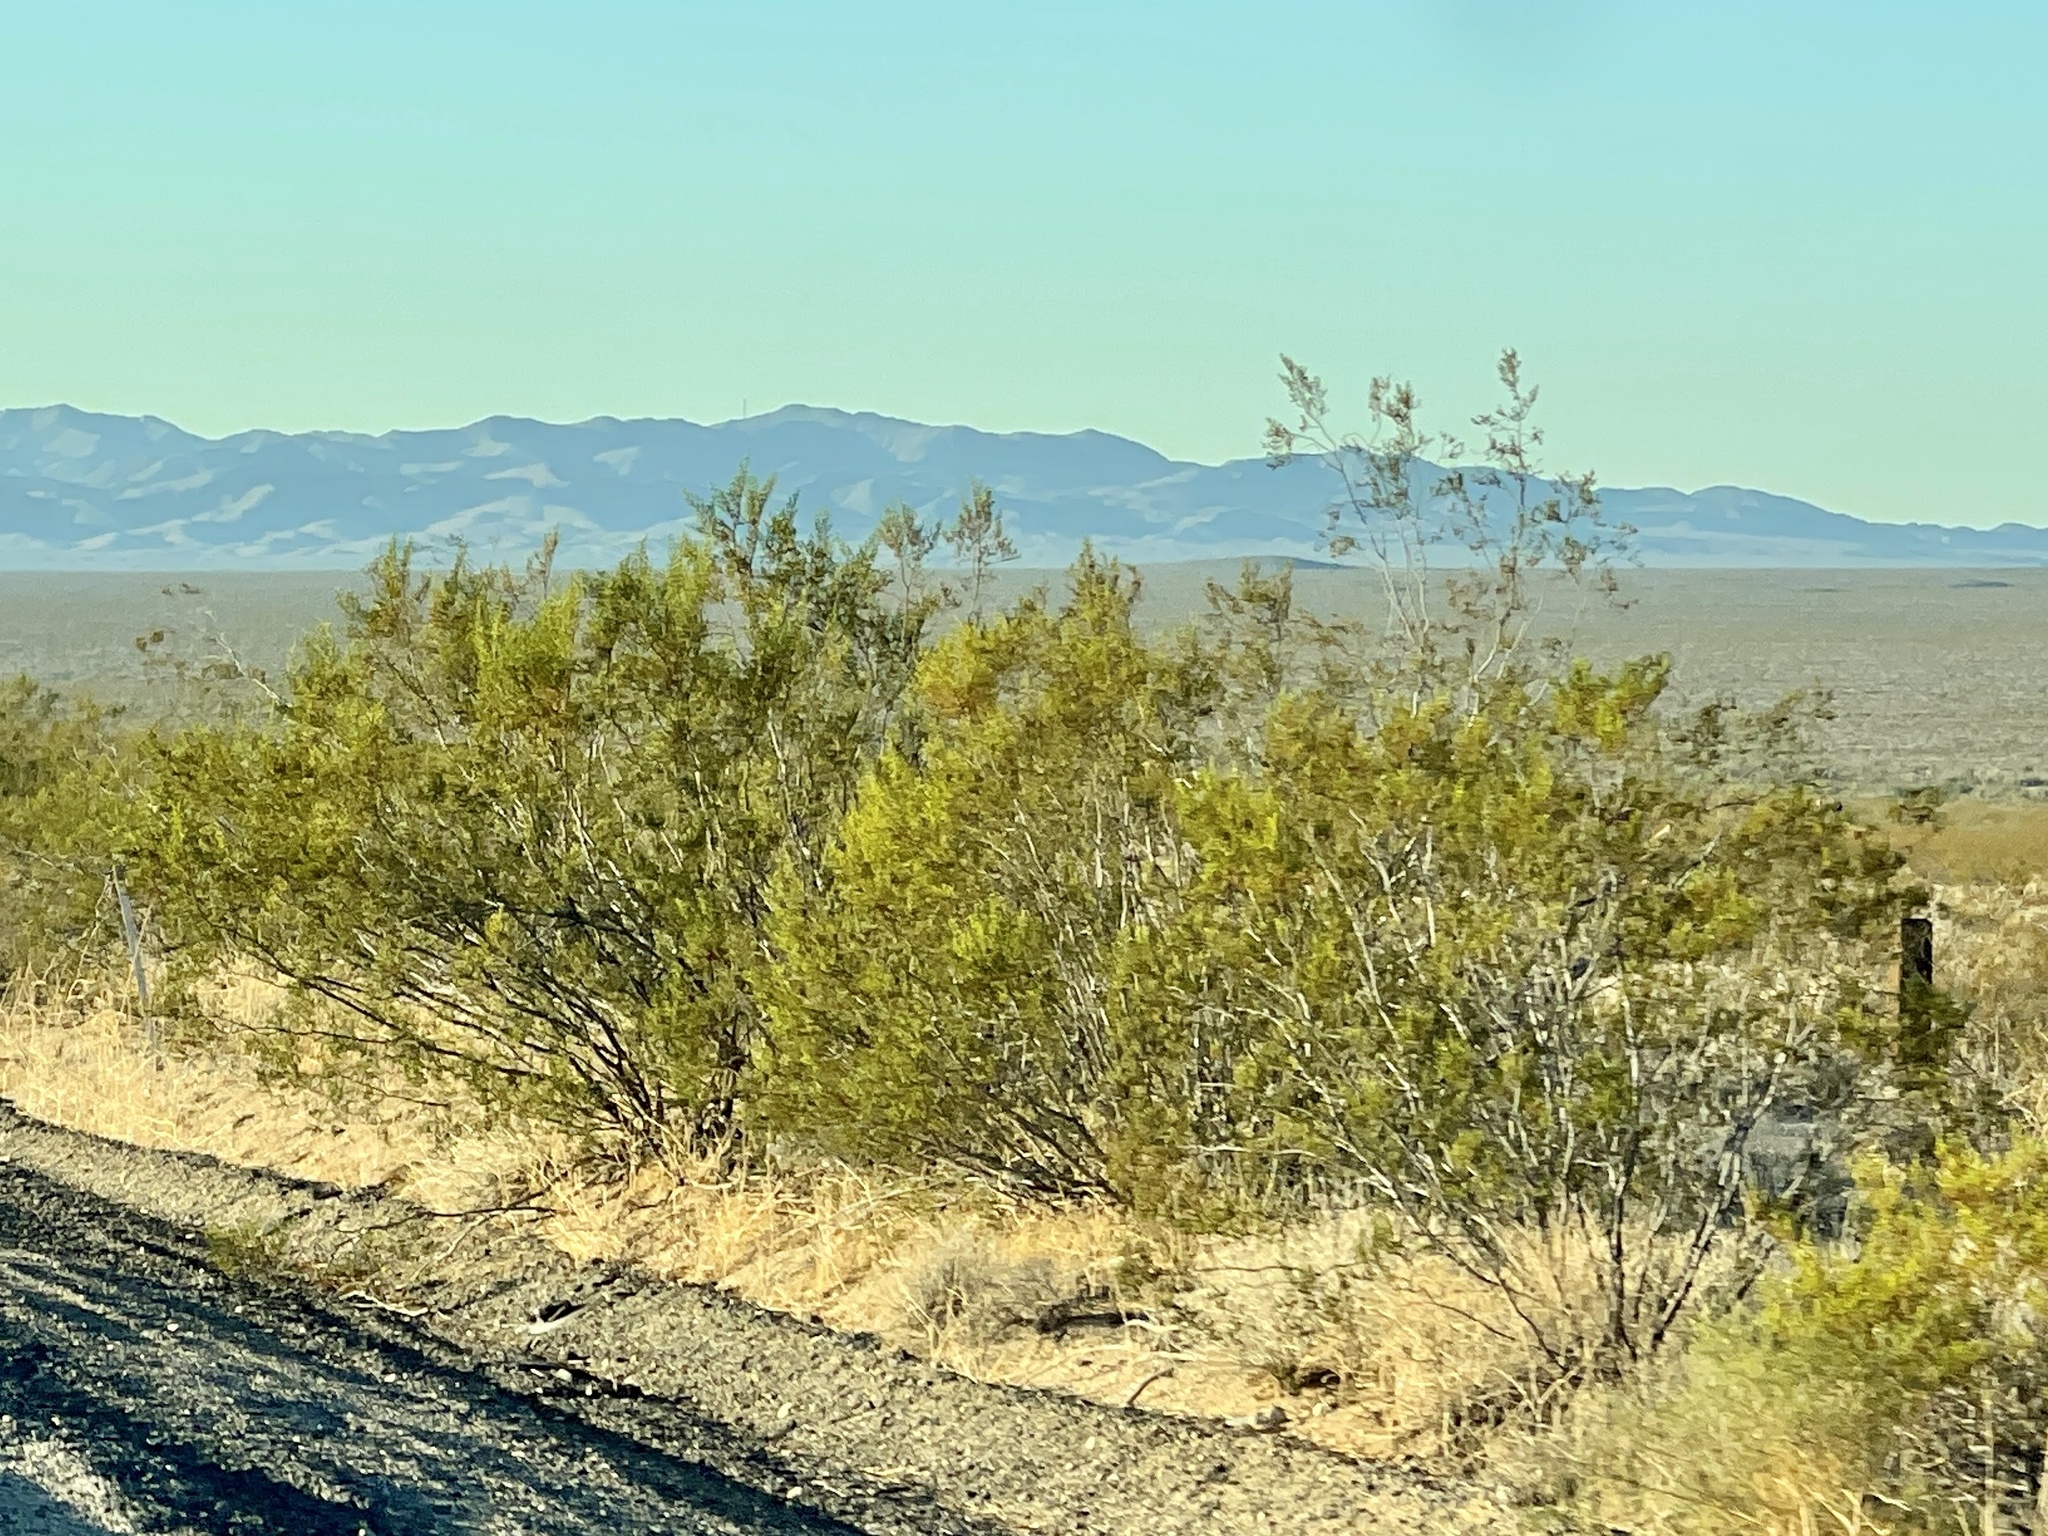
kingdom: Plantae
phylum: Tracheophyta
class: Magnoliopsida
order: Zygophyllales
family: Zygophyllaceae
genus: Larrea
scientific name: Larrea tridentata
